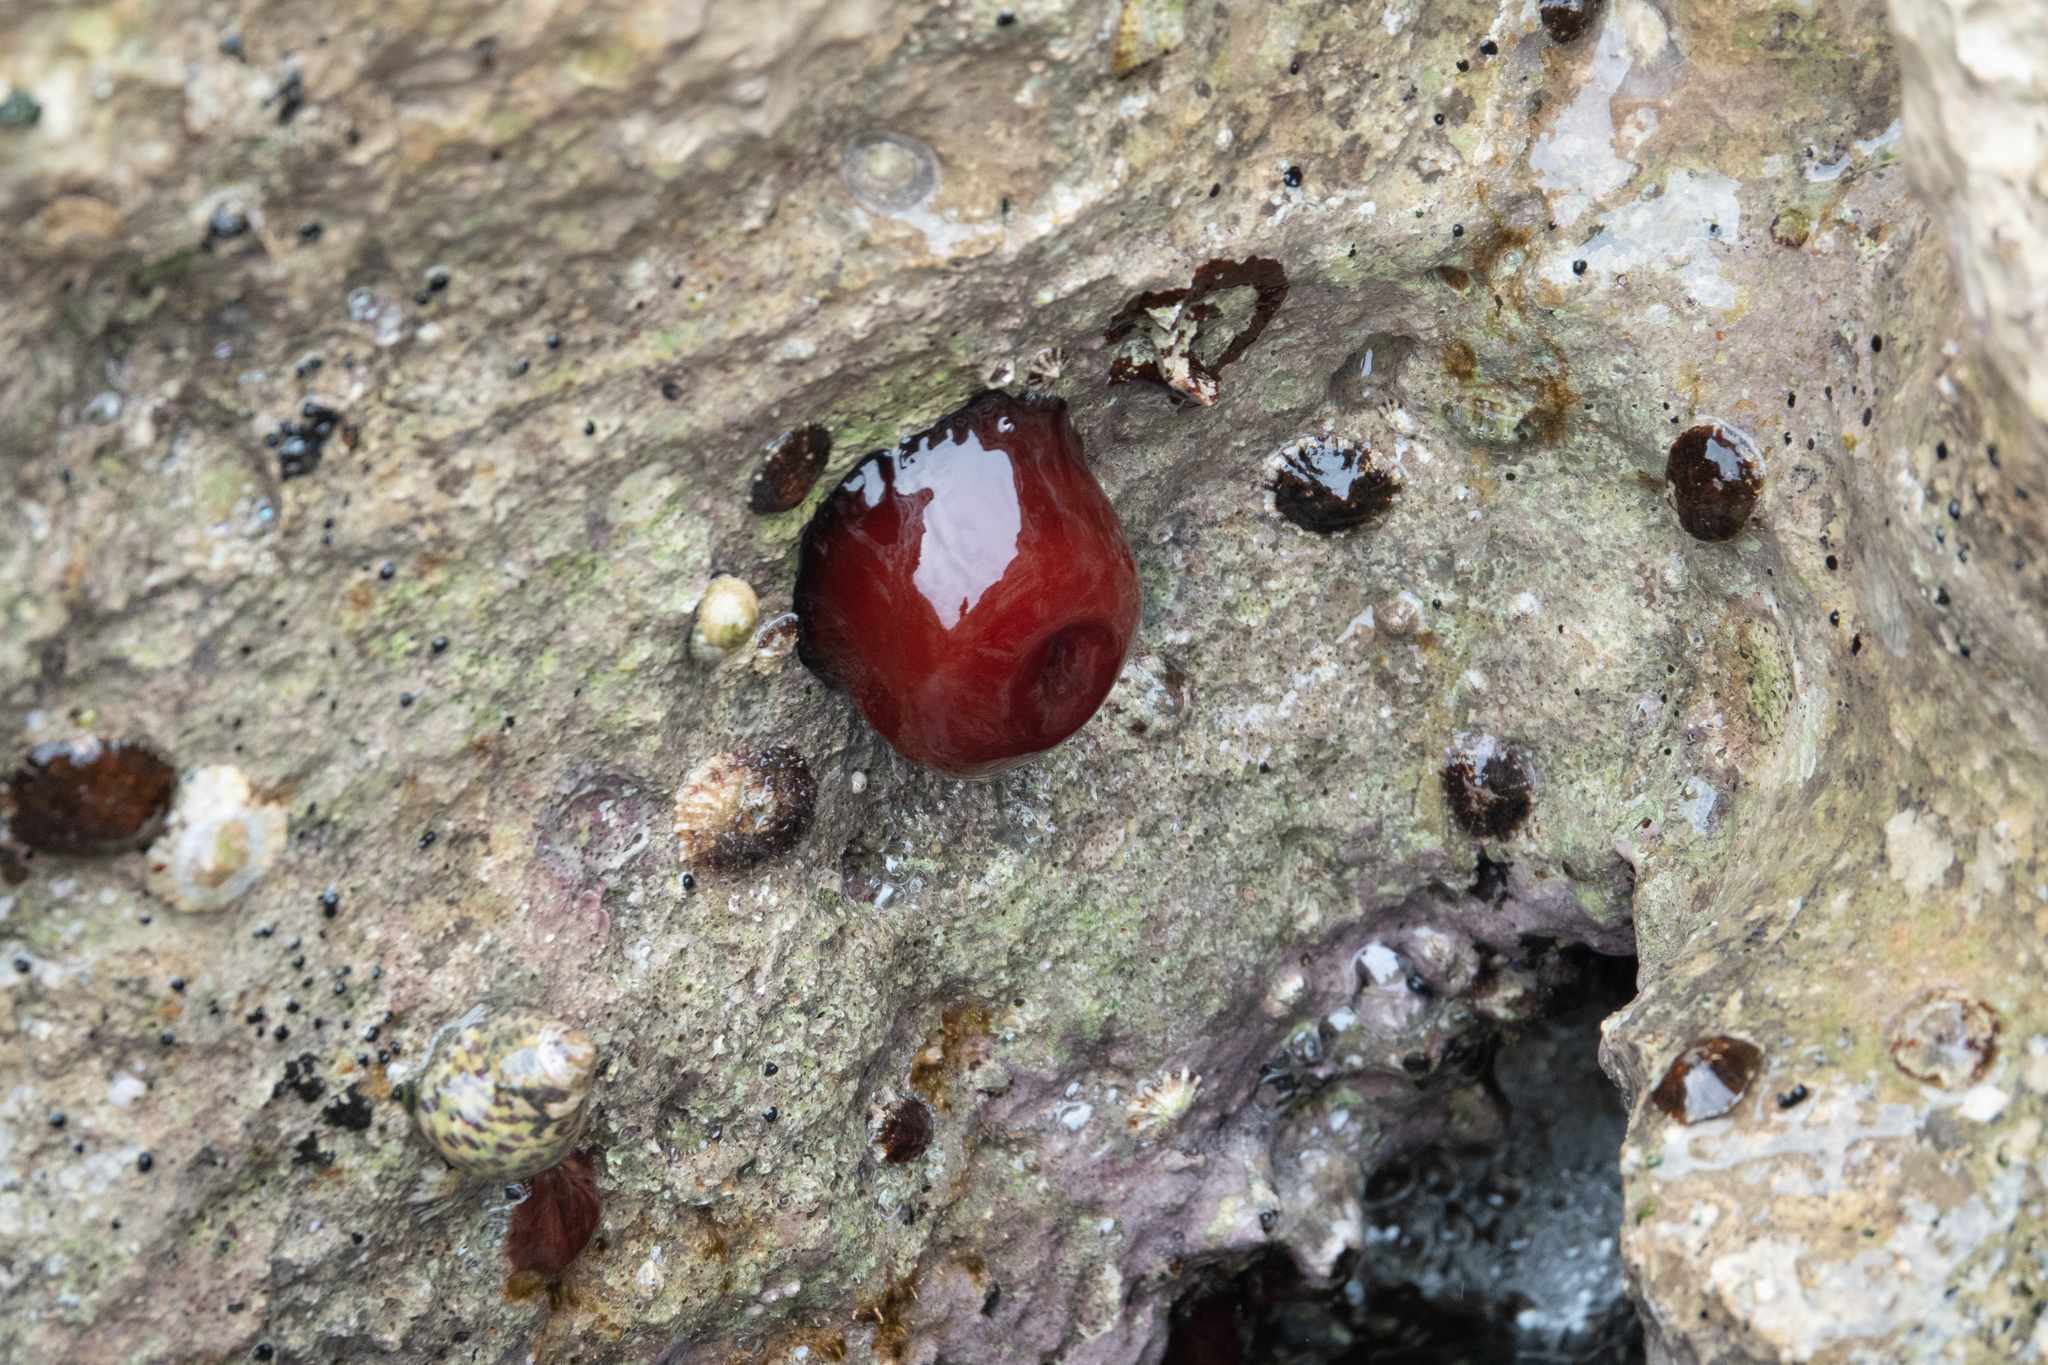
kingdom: Animalia
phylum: Cnidaria
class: Anthozoa
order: Actiniaria
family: Actiniidae
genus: Actinia
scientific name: Actinia mediterranea
